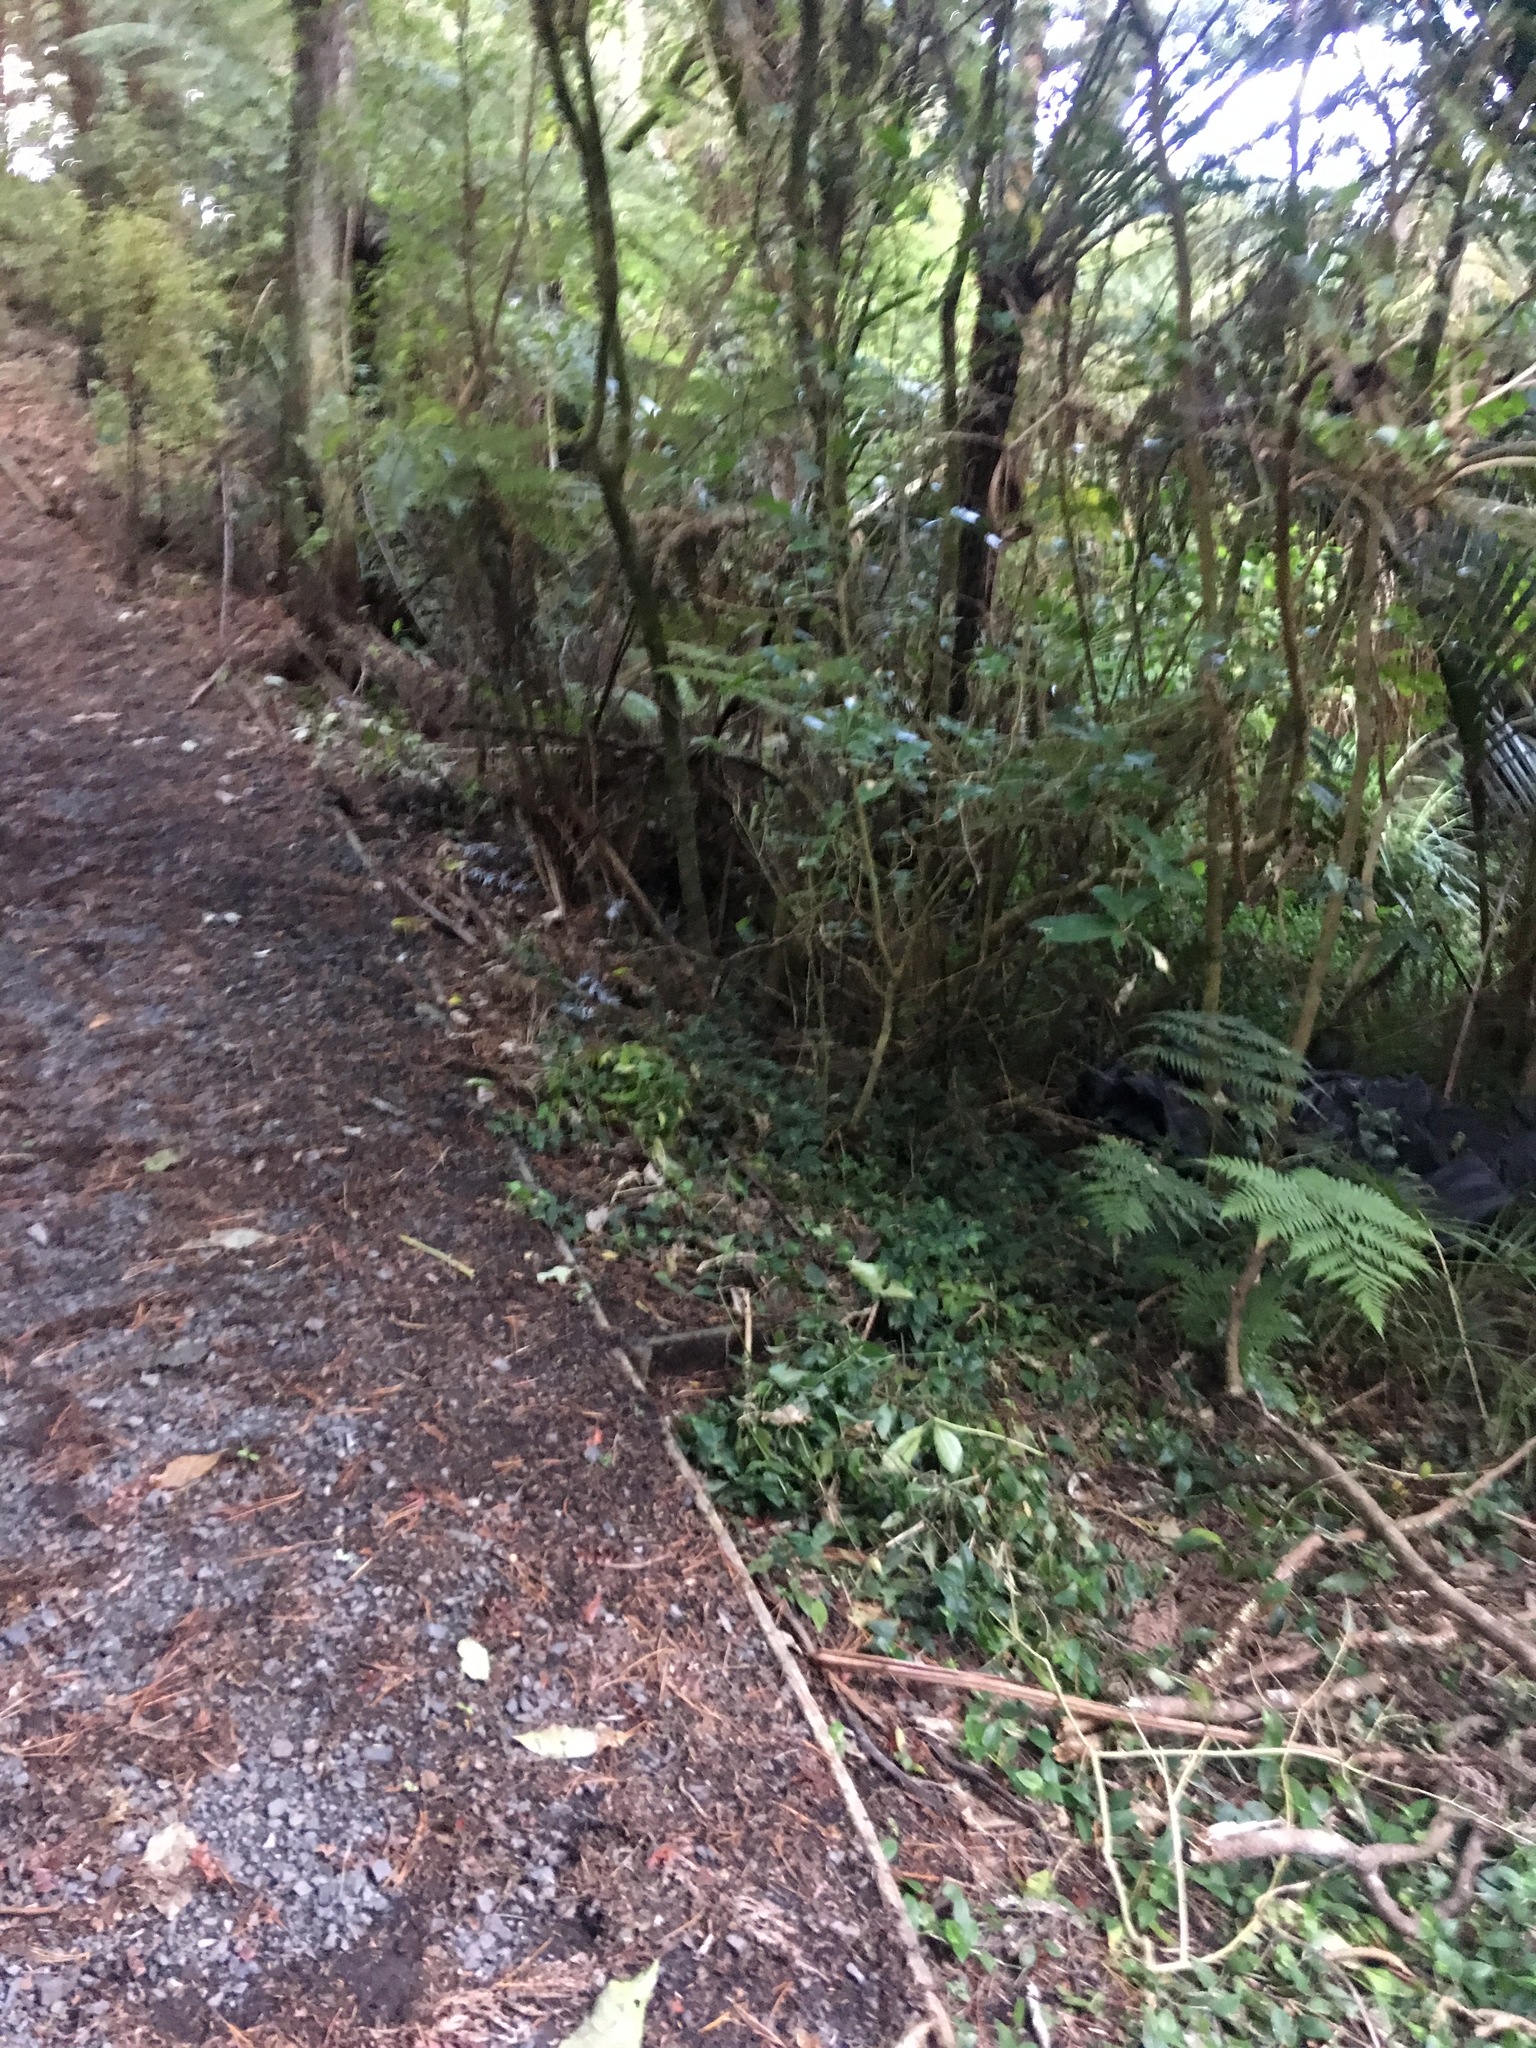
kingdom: Plantae
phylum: Tracheophyta
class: Liliopsida
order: Commelinales
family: Commelinaceae
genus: Tradescantia
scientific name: Tradescantia fluminensis
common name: Wandering-jew
